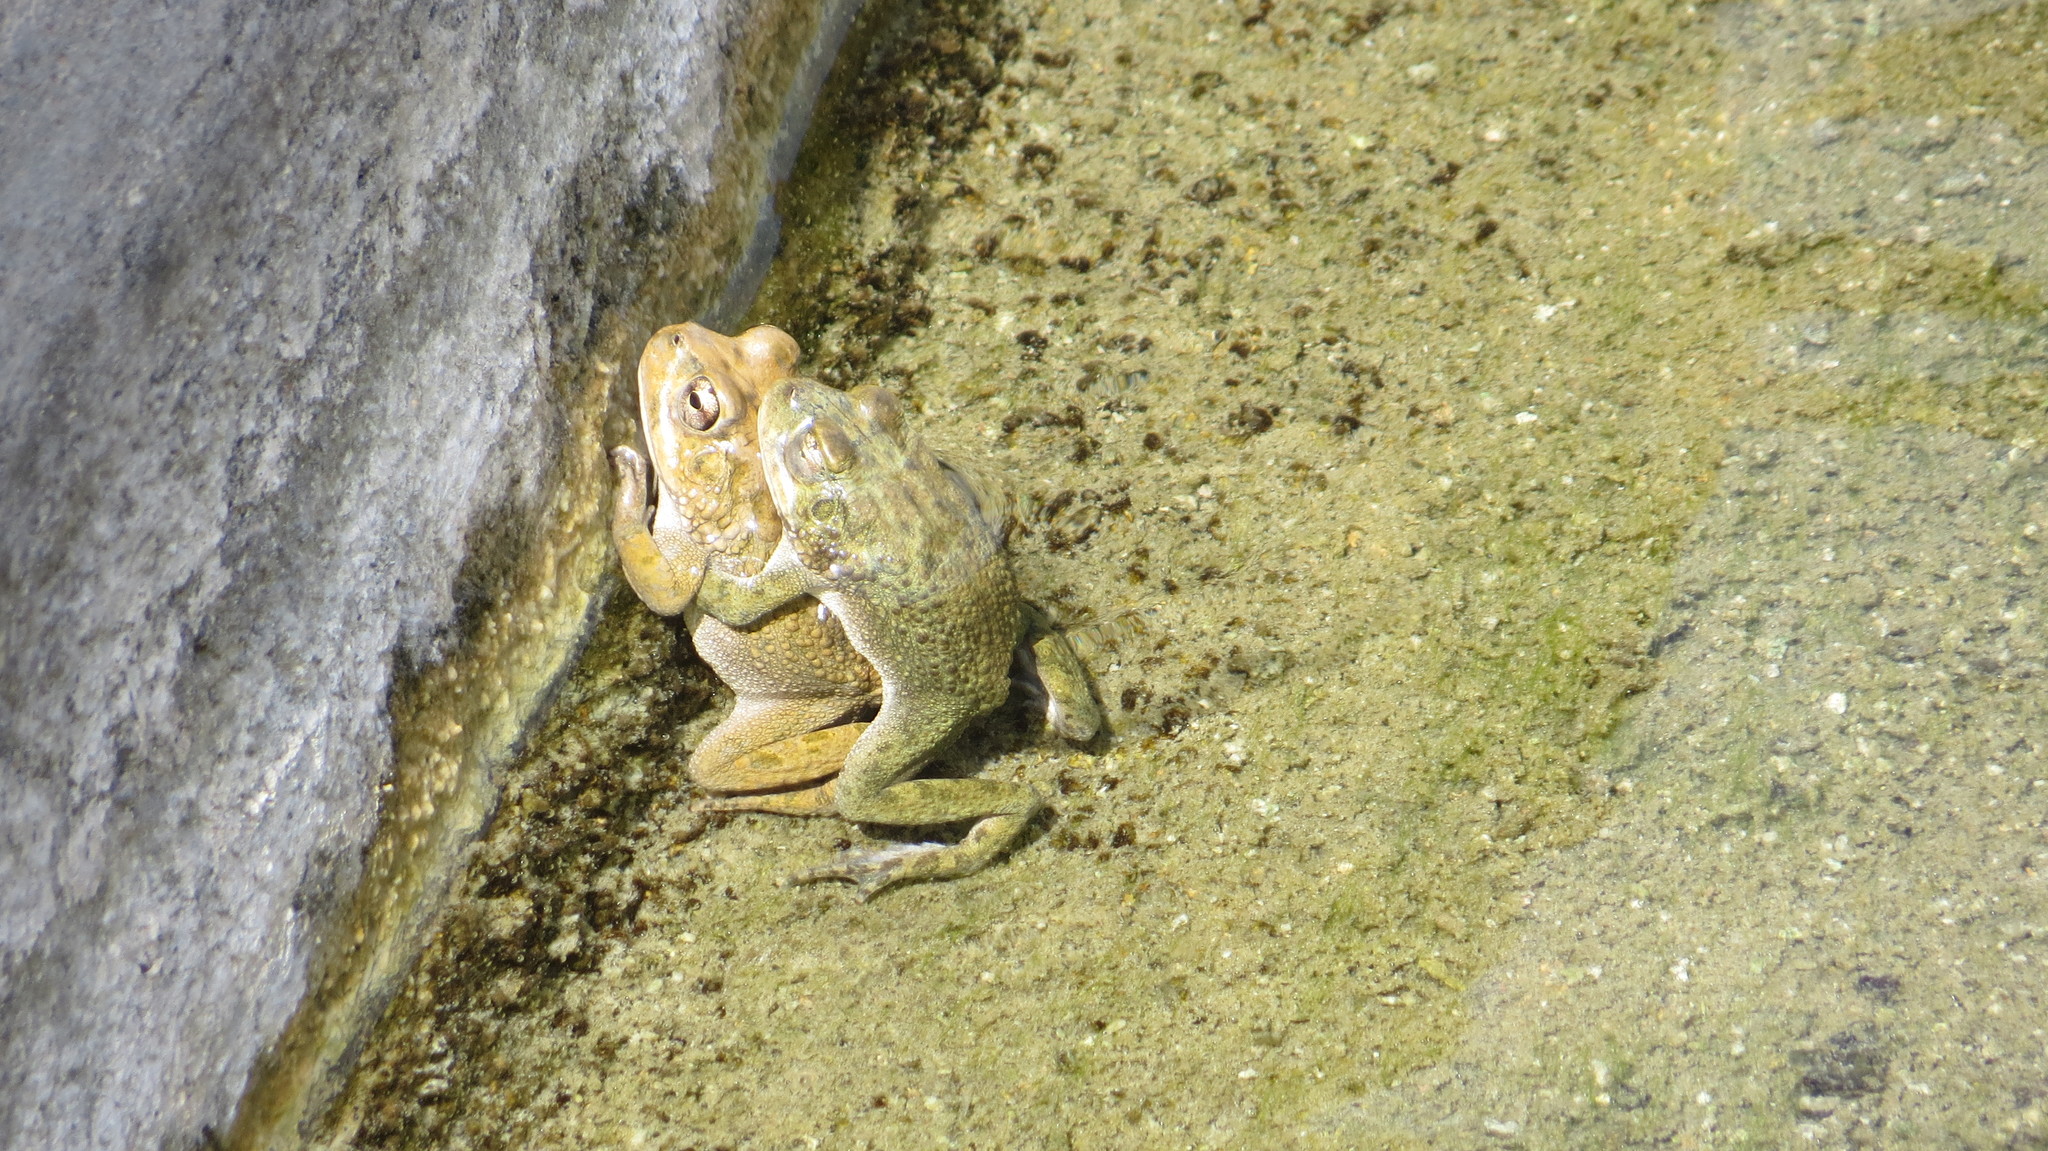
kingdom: Animalia
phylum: Chordata
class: Amphibia
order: Anura
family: Bufonidae
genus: Sclerophrys
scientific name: Sclerophrys arabica
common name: Arabian toad
